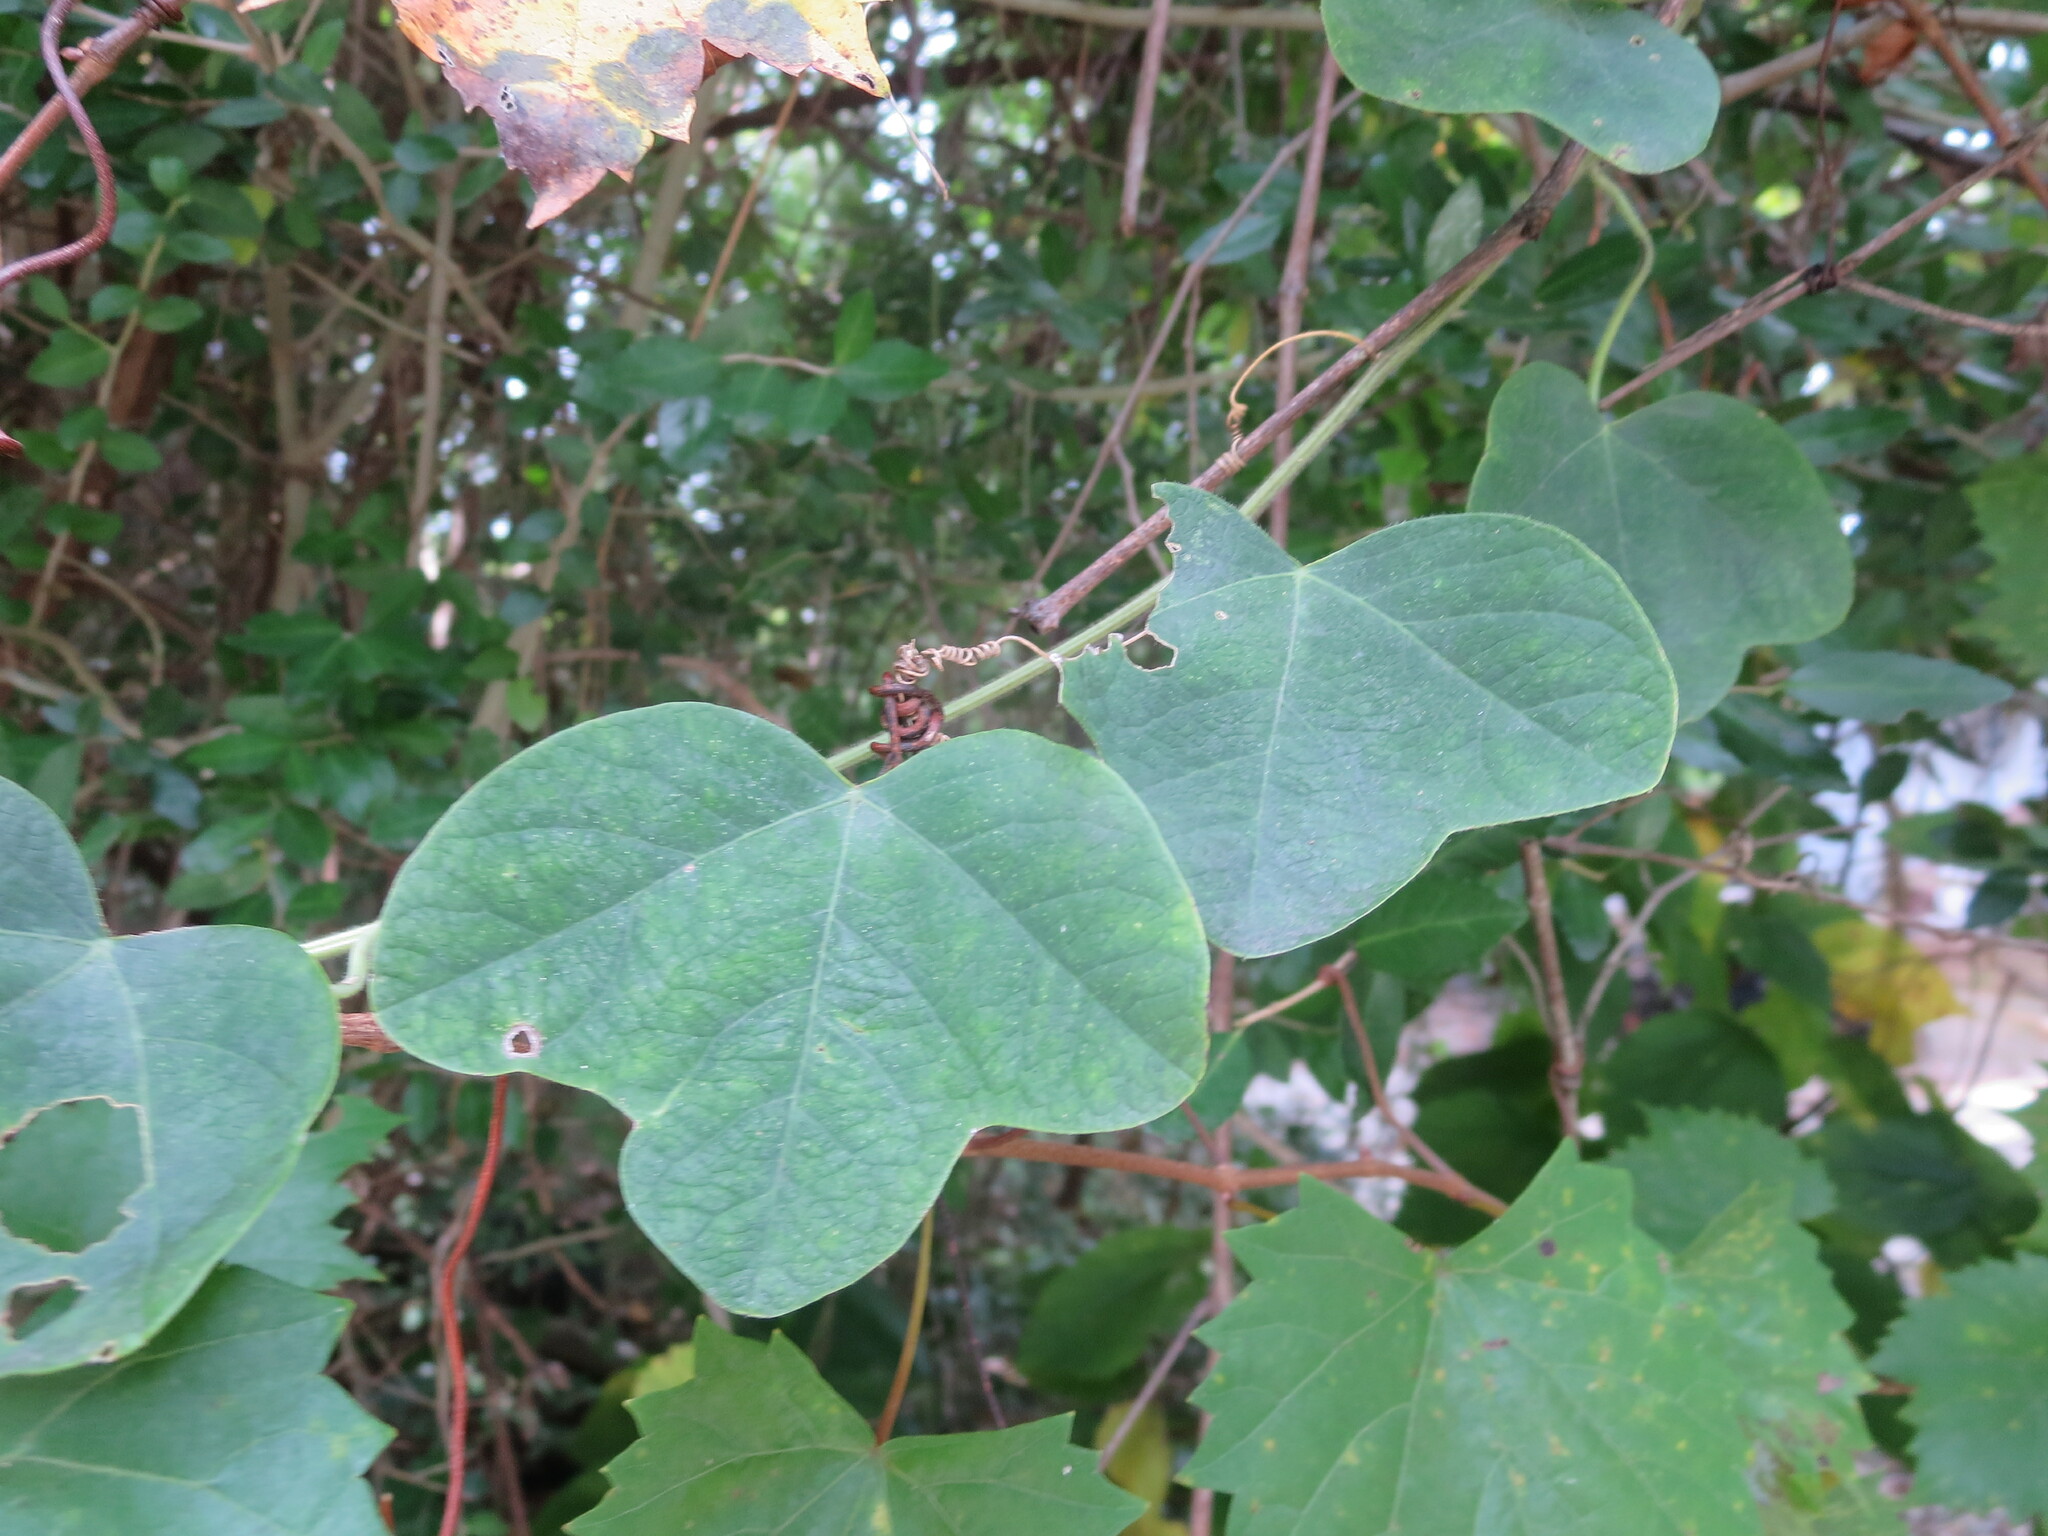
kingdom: Plantae
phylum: Tracheophyta
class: Magnoliopsida
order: Malpighiales
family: Passifloraceae
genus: Passiflora
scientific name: Passiflora lutea
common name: Yellow passionflower
